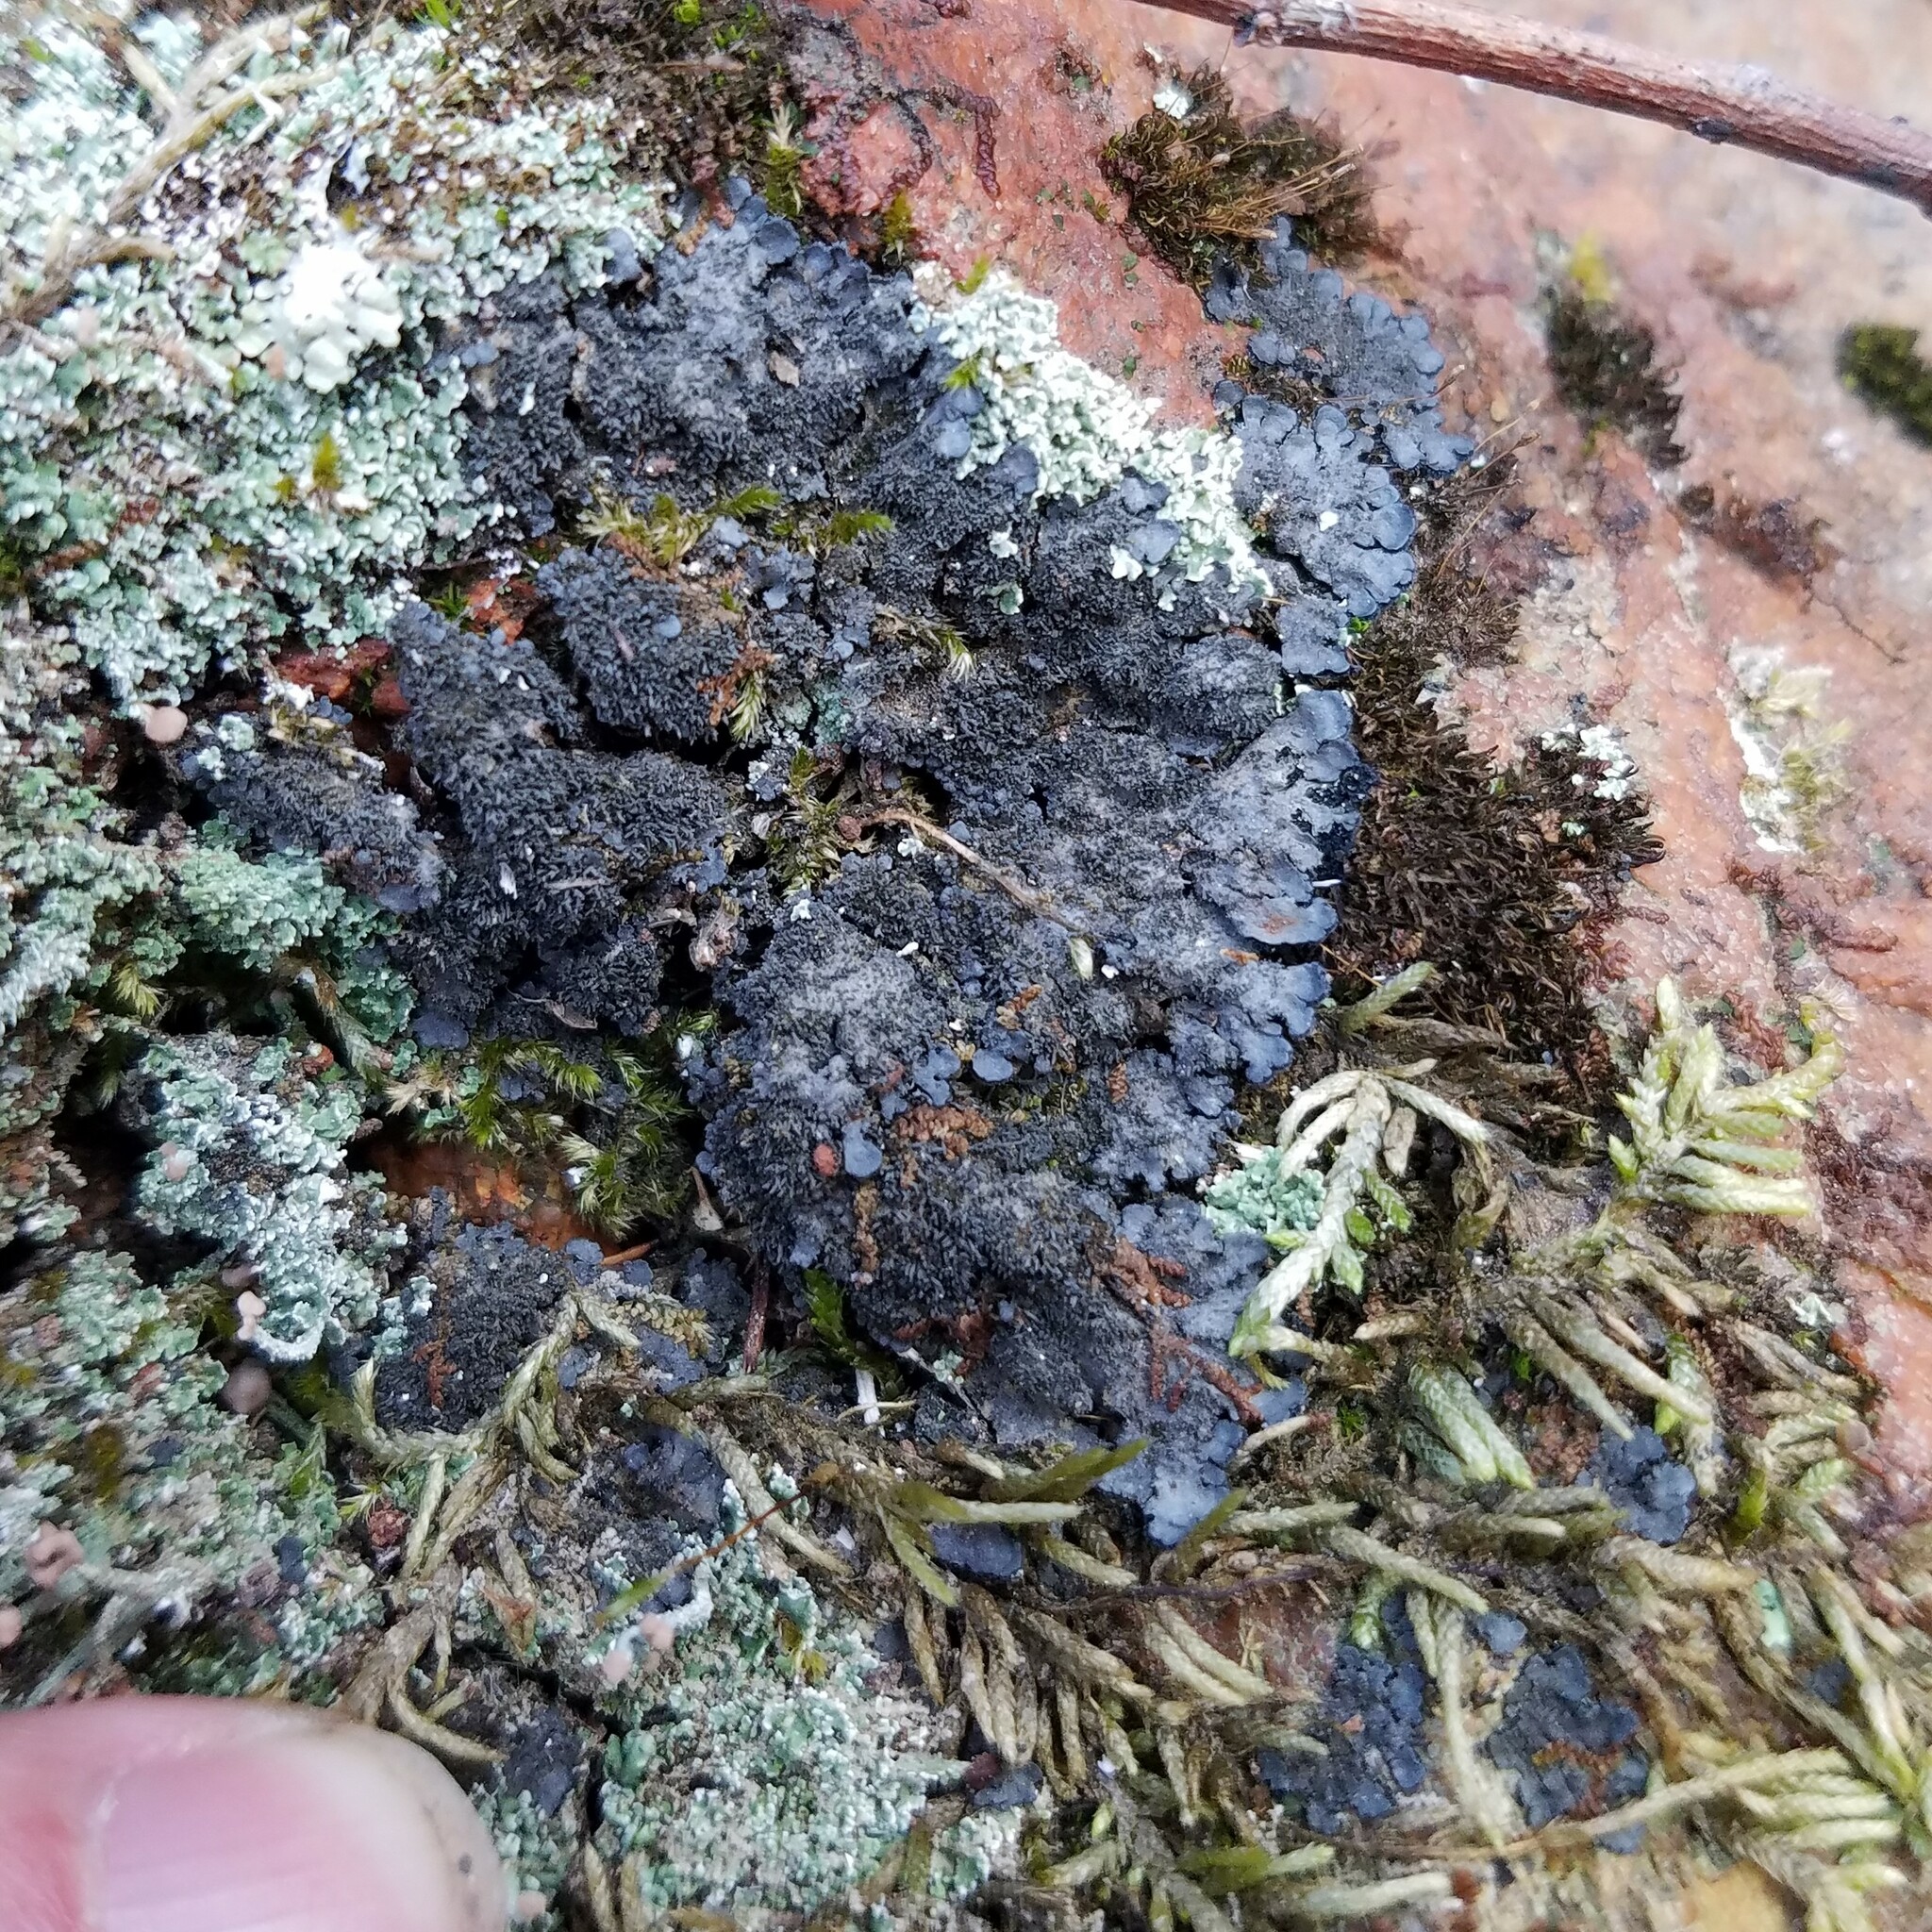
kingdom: Fungi
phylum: Ascomycota
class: Lecanoromycetes
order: Peltigerales
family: Coccocarpiaceae
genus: Coccocarpia
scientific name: Coccocarpia palmicola
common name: Salted shell lichen
